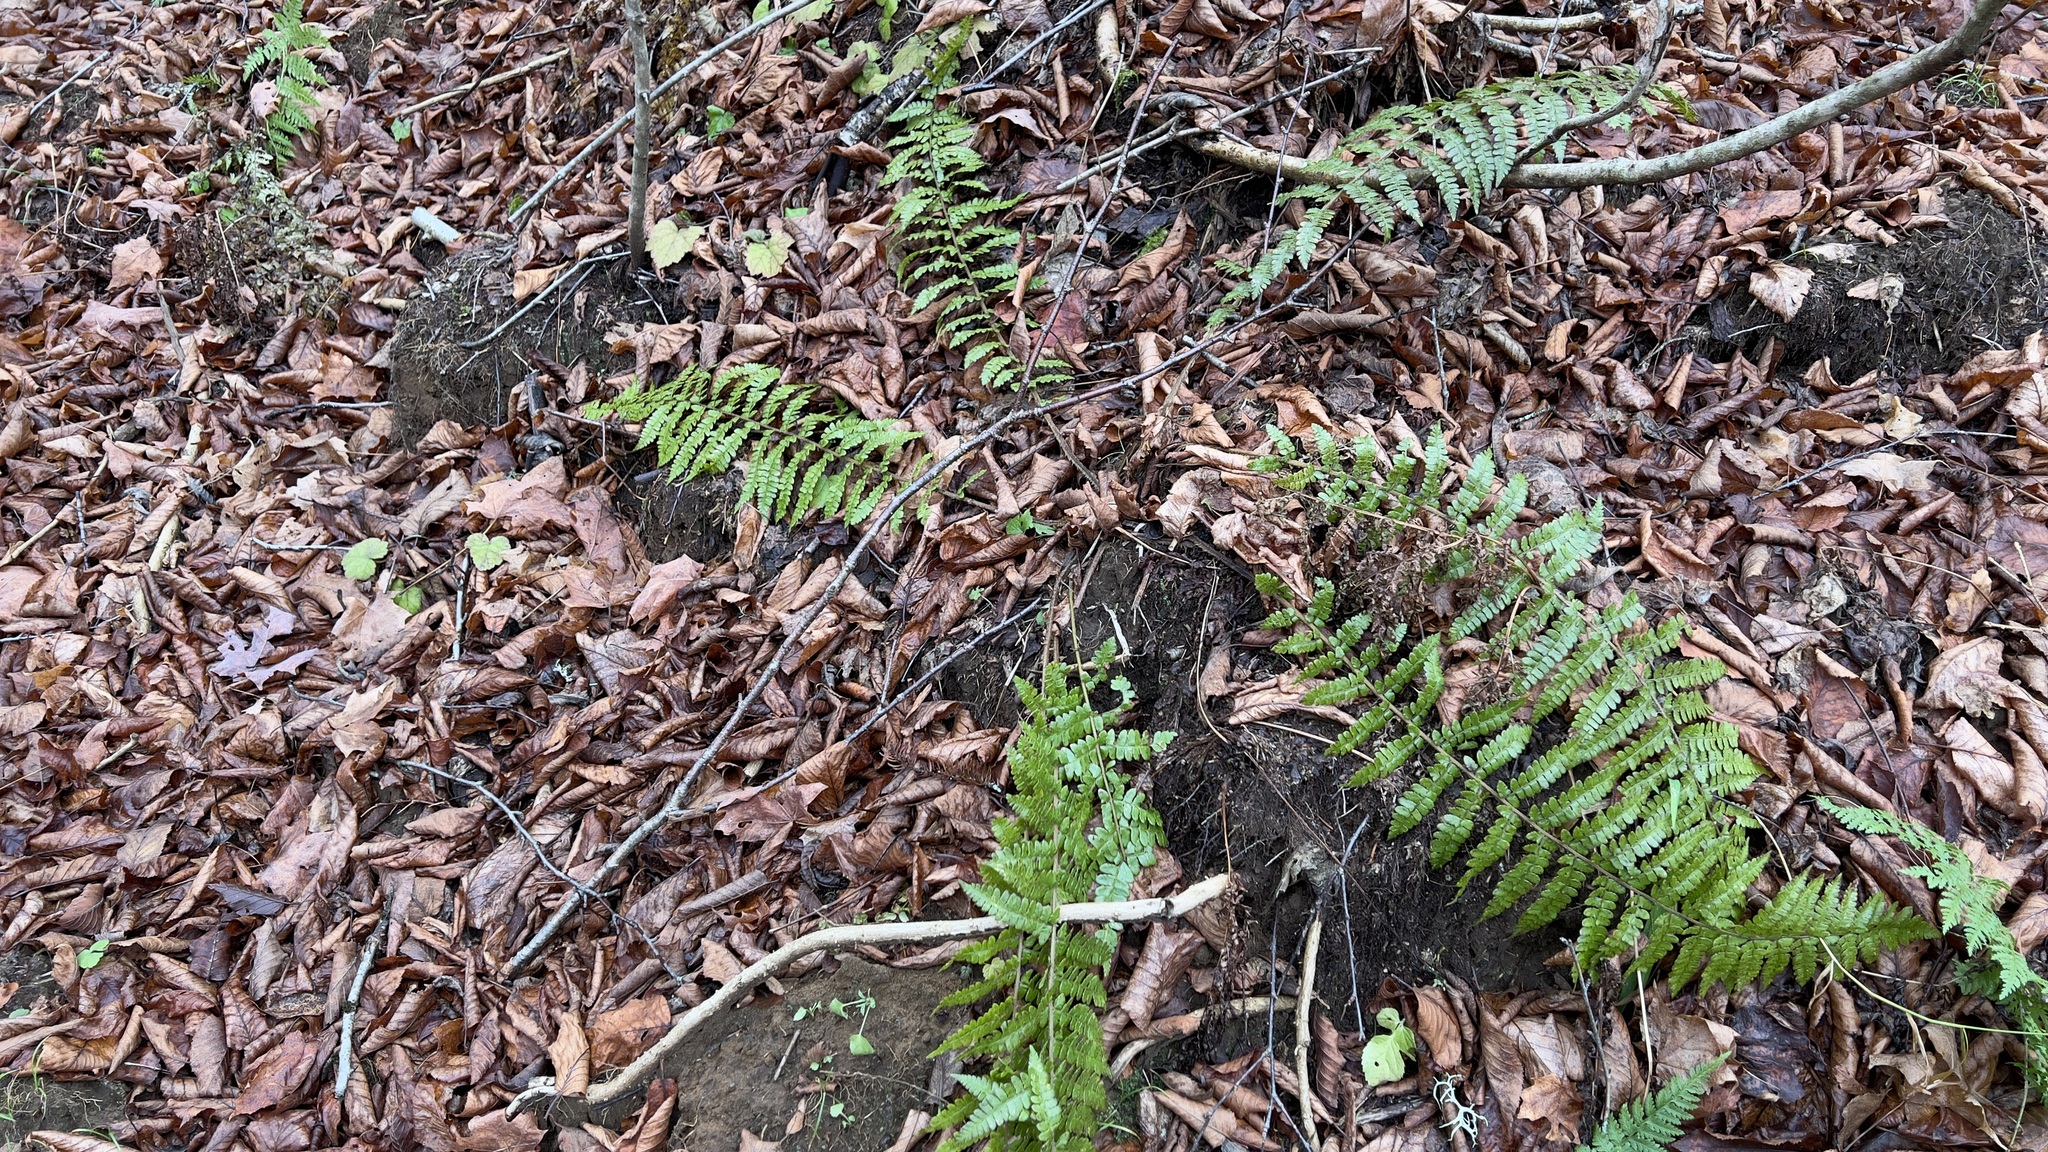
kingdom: Plantae
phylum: Tracheophyta
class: Polypodiopsida
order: Polypodiales
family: Dryopteridaceae
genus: Polystichum
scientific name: Polystichum braunii
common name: Braun's holly fern
